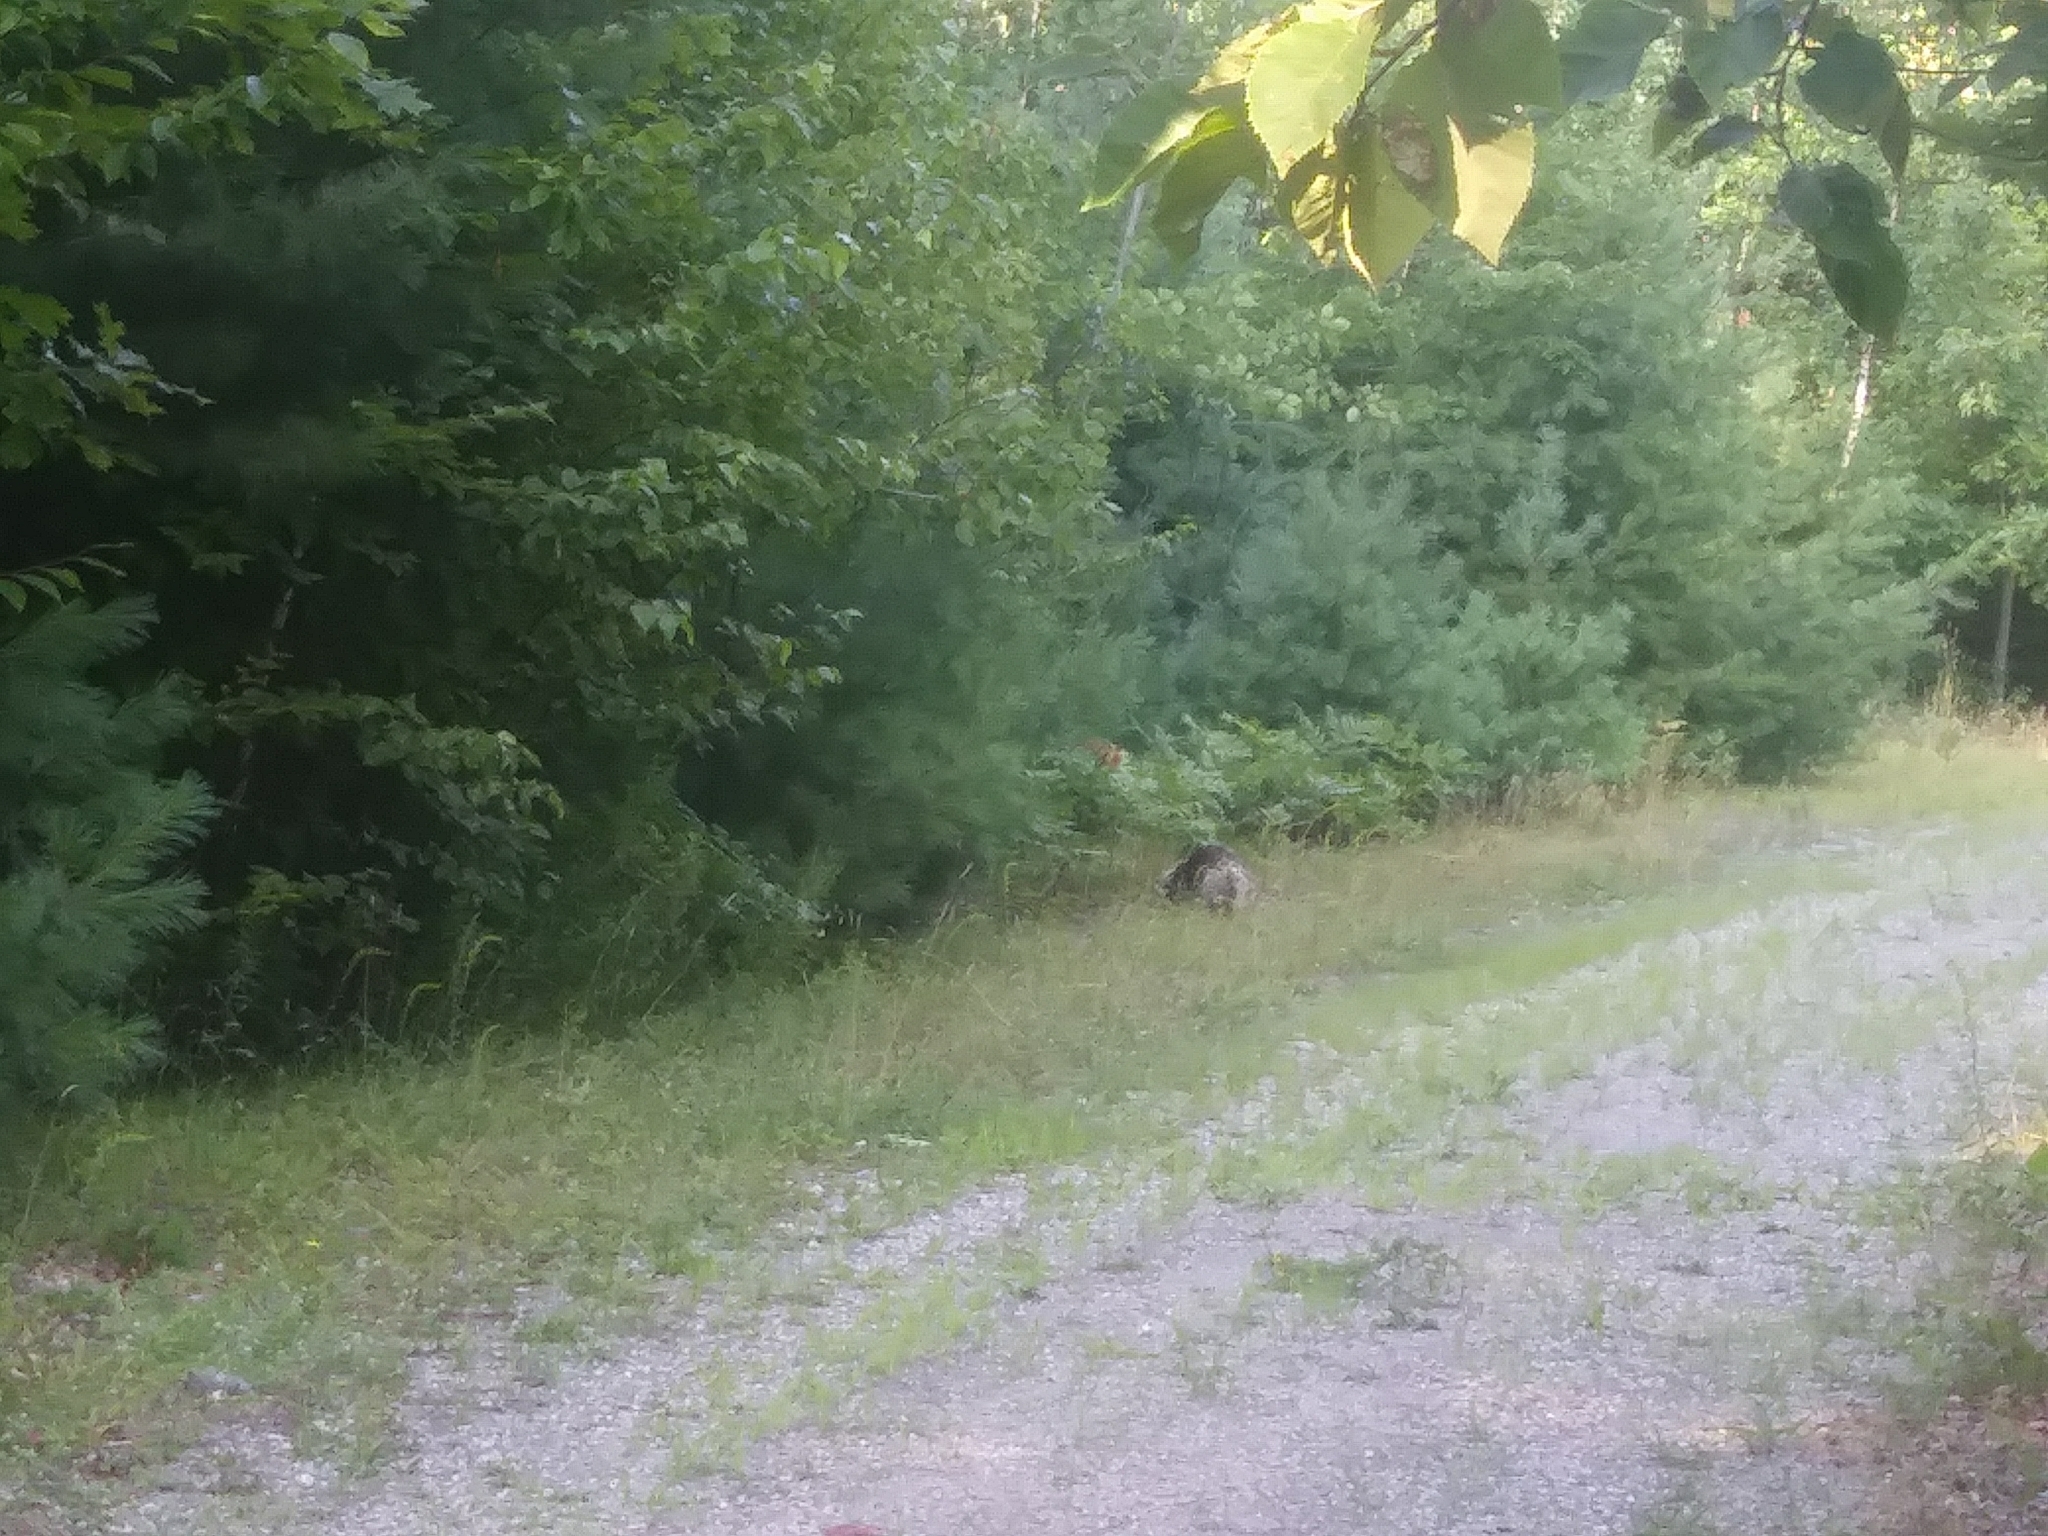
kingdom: Animalia
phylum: Chordata
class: Mammalia
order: Rodentia
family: Erethizontidae
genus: Erethizon
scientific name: Erethizon dorsatus
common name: North american porcupine
